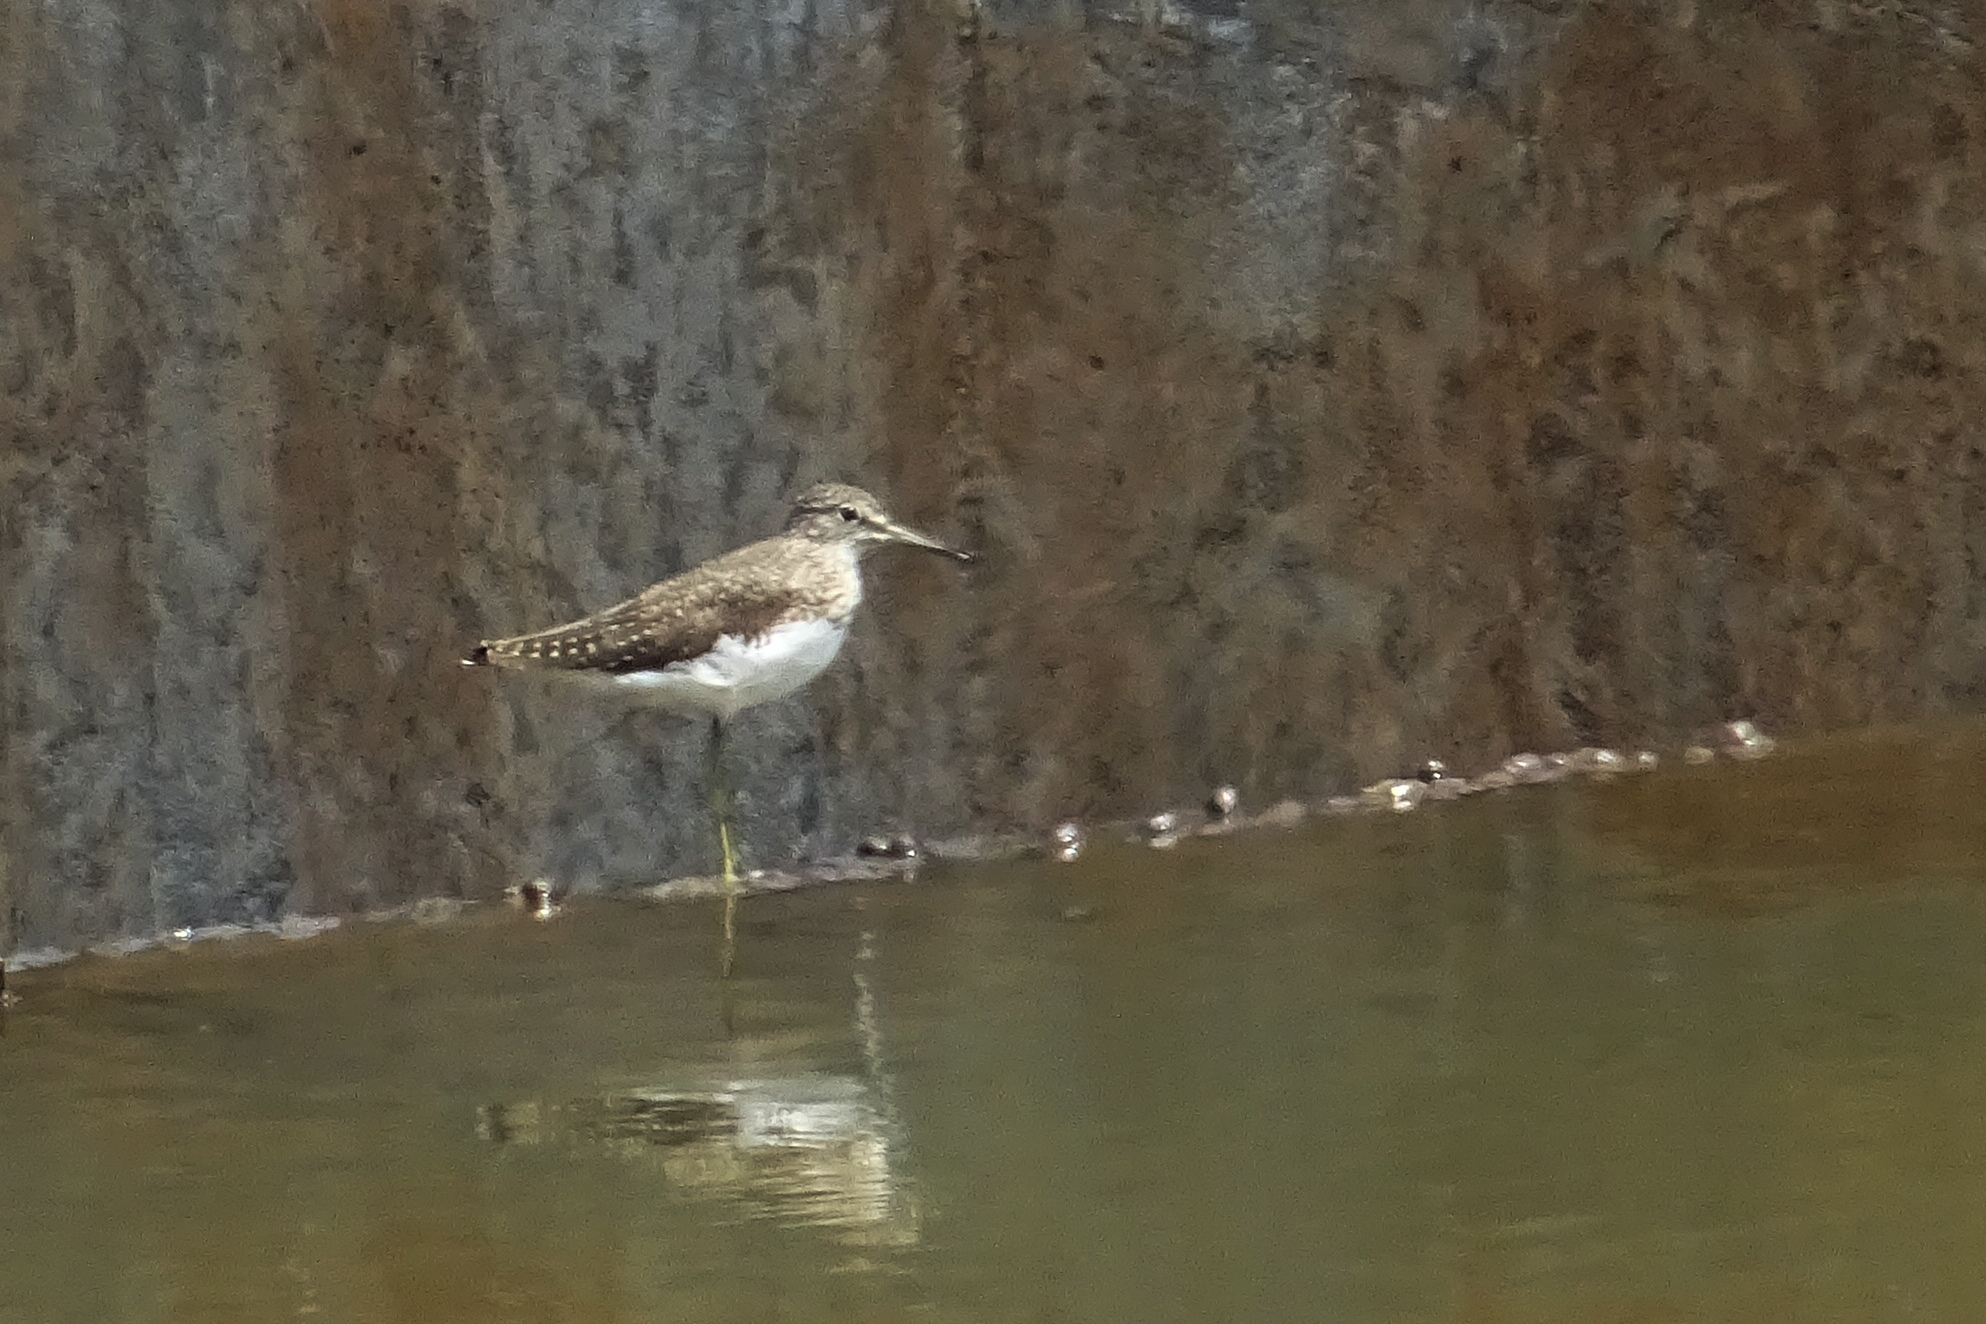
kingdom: Animalia
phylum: Chordata
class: Aves
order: Charadriiformes
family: Scolopacidae
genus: Tringa
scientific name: Tringa ochropus
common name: Green sandpiper
